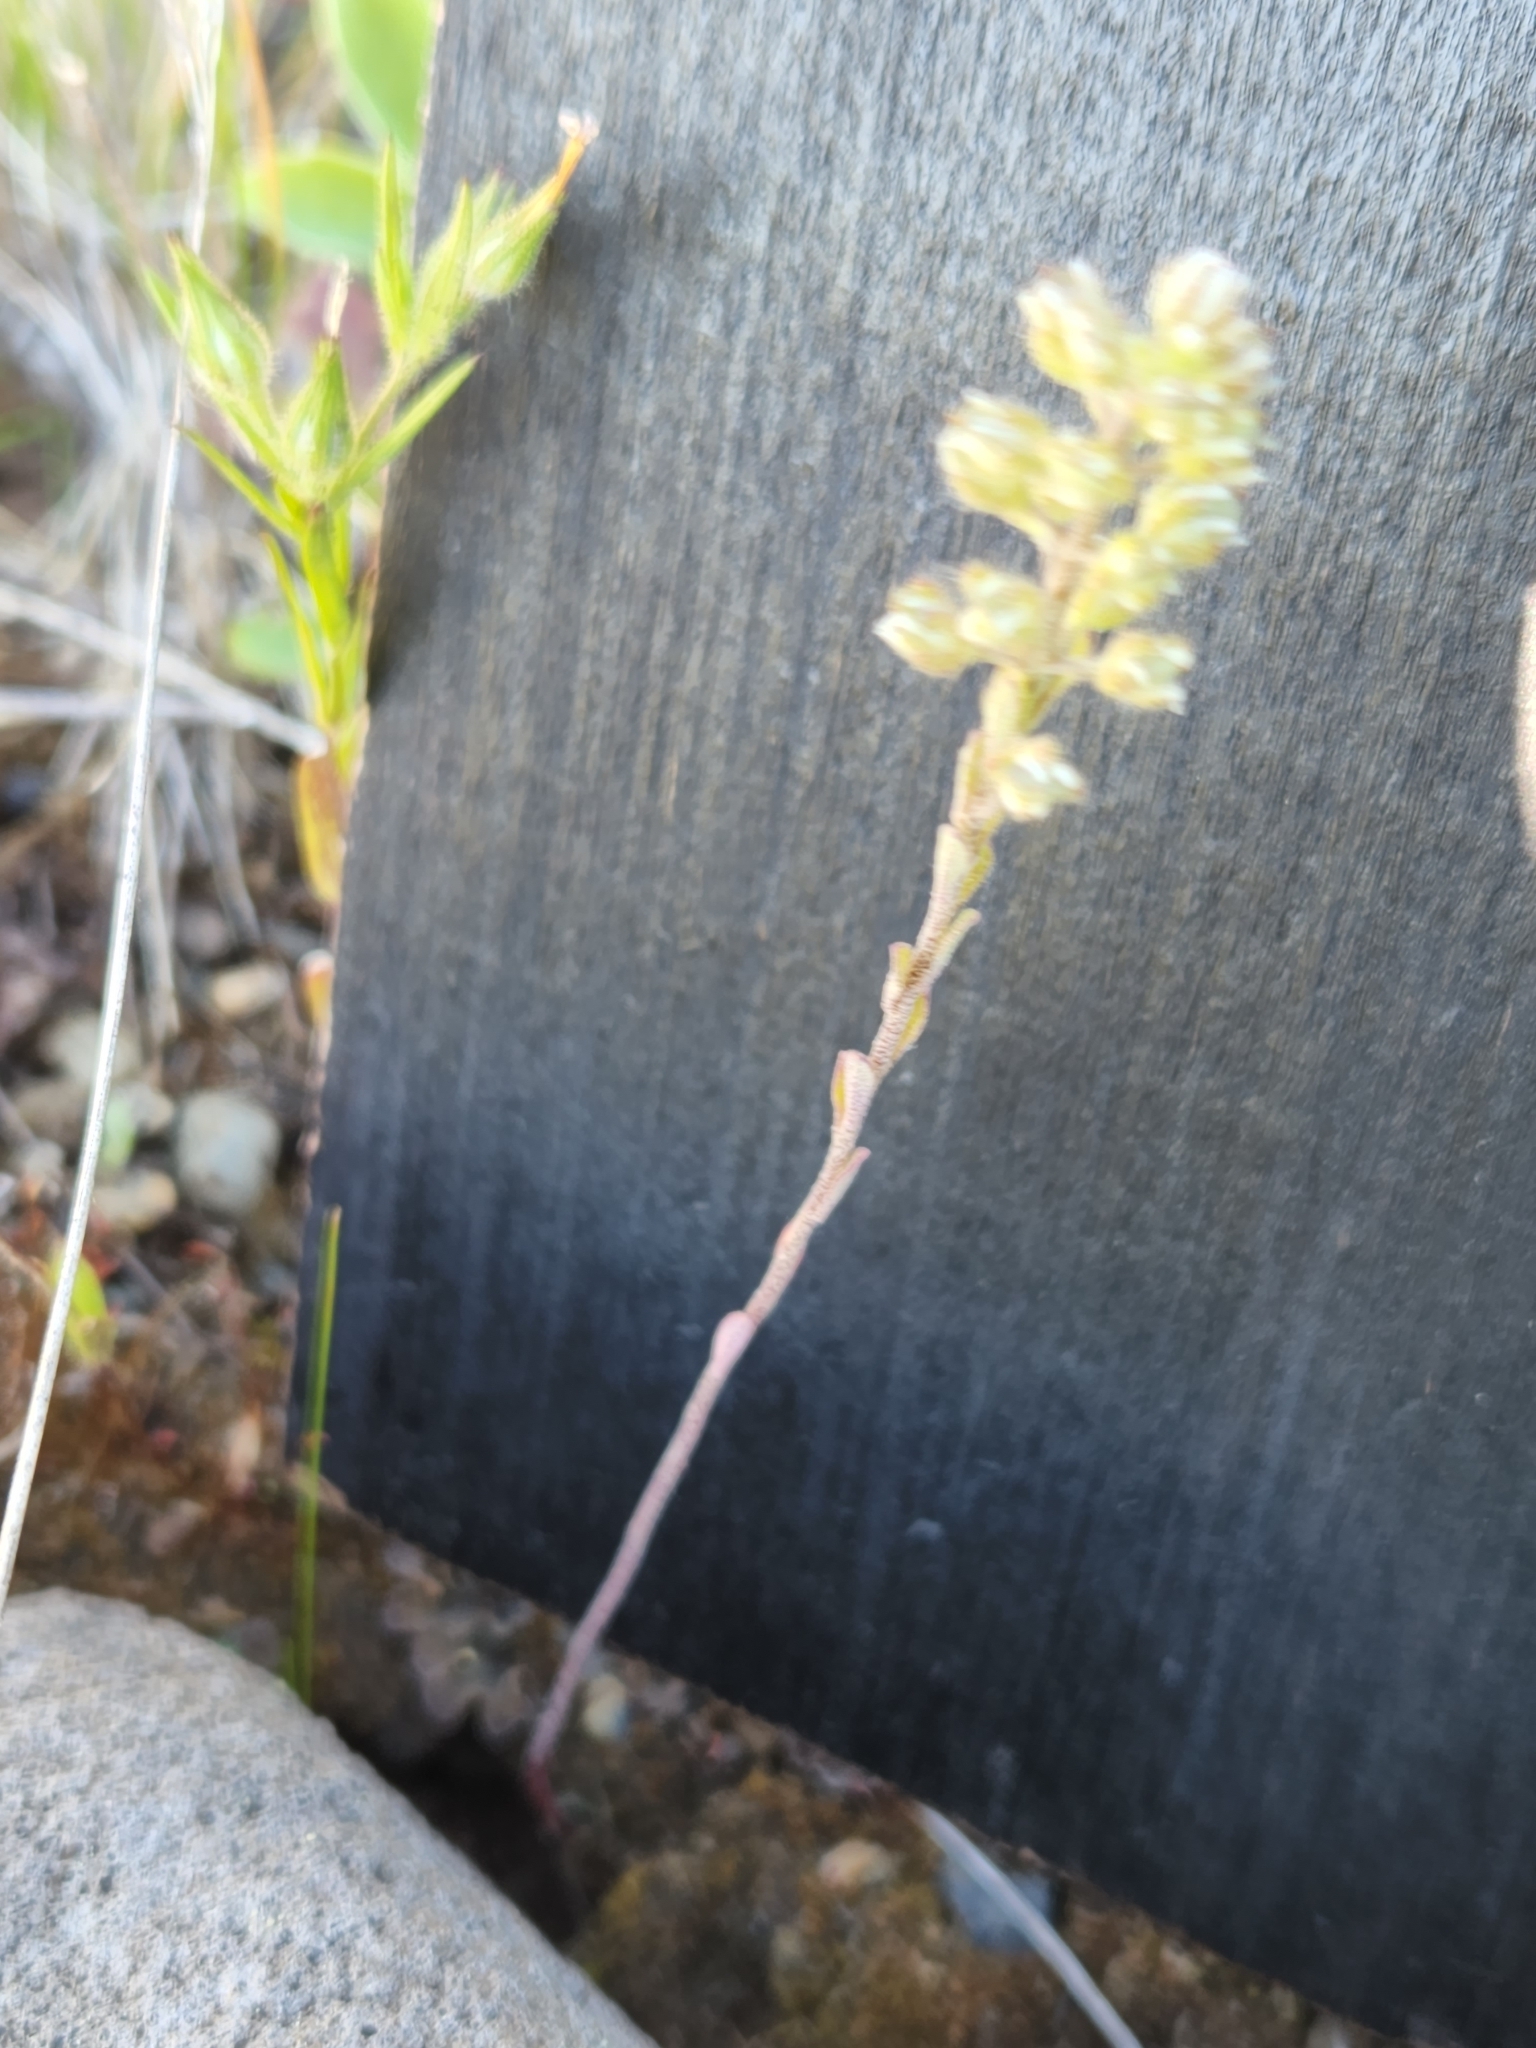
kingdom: Plantae
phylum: Tracheophyta
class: Magnoliopsida
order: Brassicales
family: Brassicaceae
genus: Alyssum
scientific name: Alyssum alyssoides
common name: Small alison
